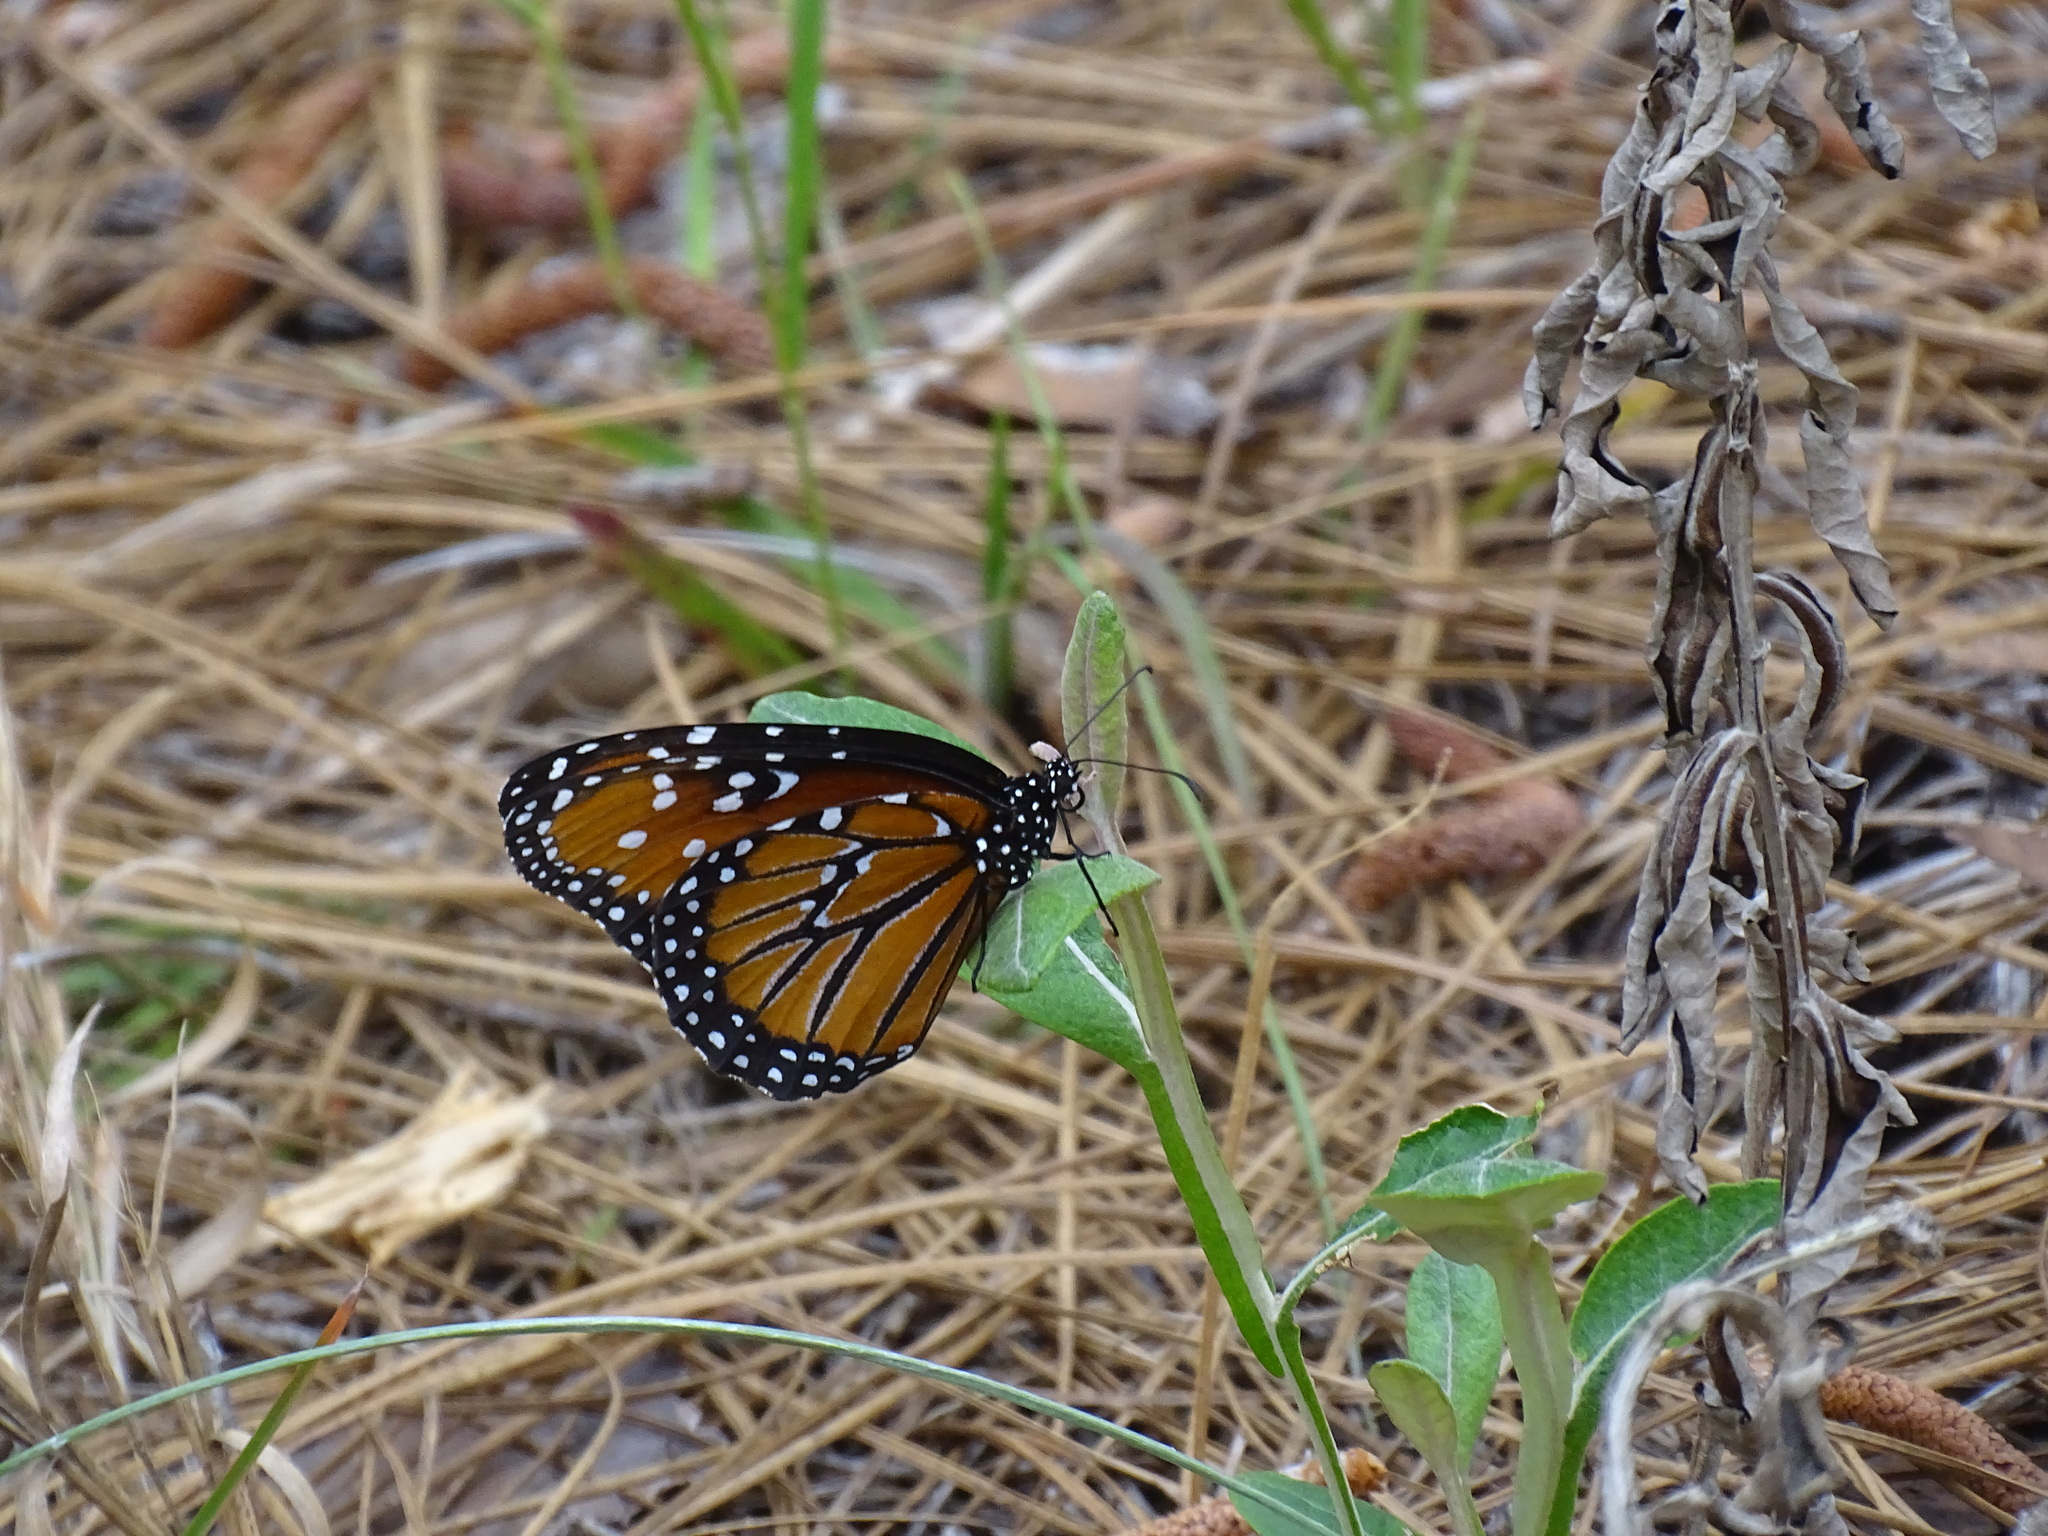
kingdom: Animalia
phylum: Arthropoda
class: Insecta
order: Lepidoptera
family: Nymphalidae
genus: Danaus
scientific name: Danaus gilippus
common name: Queen
